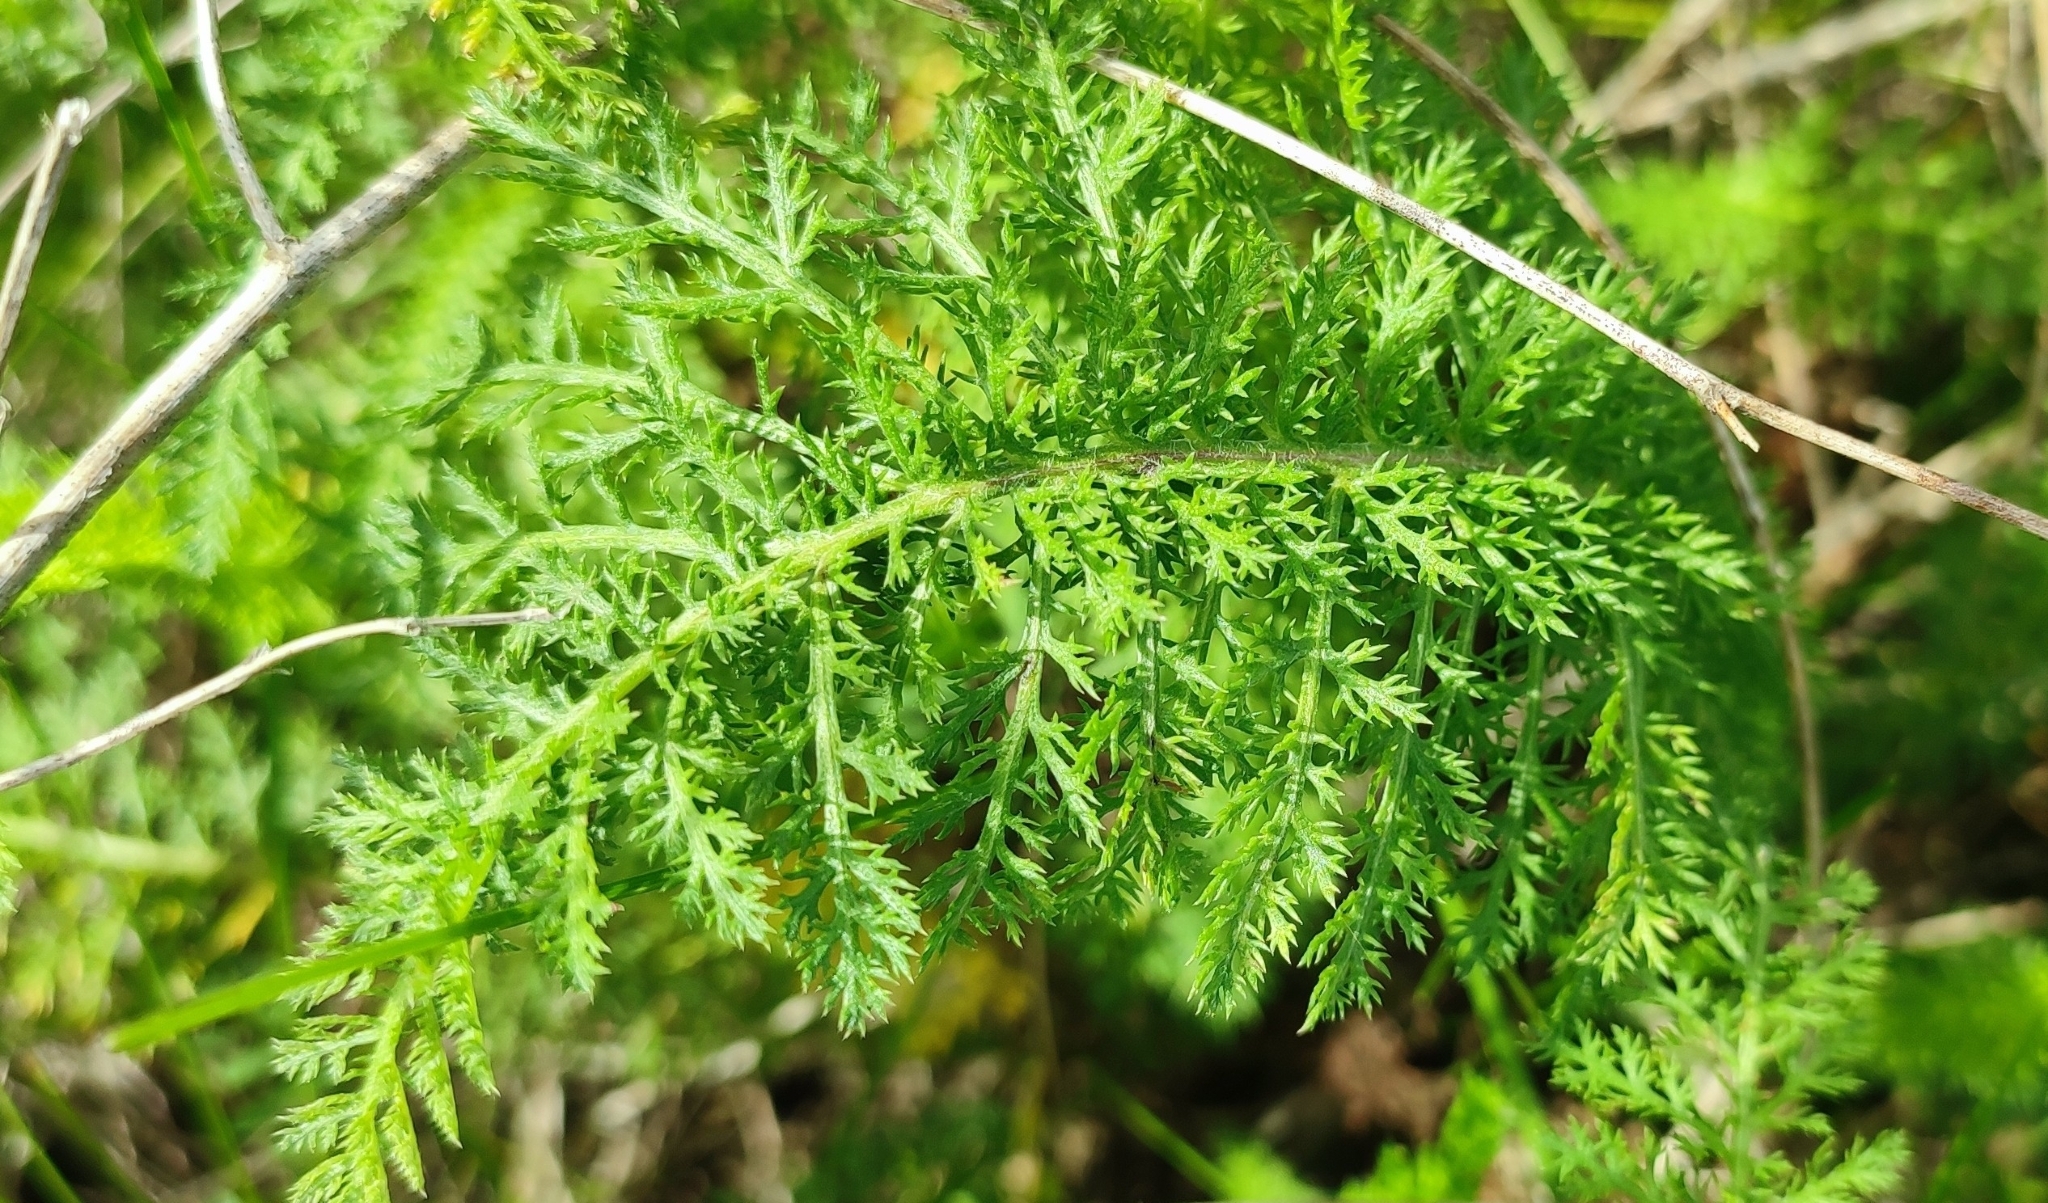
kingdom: Plantae
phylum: Tracheophyta
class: Magnoliopsida
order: Asterales
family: Asteraceae
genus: Achillea
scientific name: Achillea asiatica
